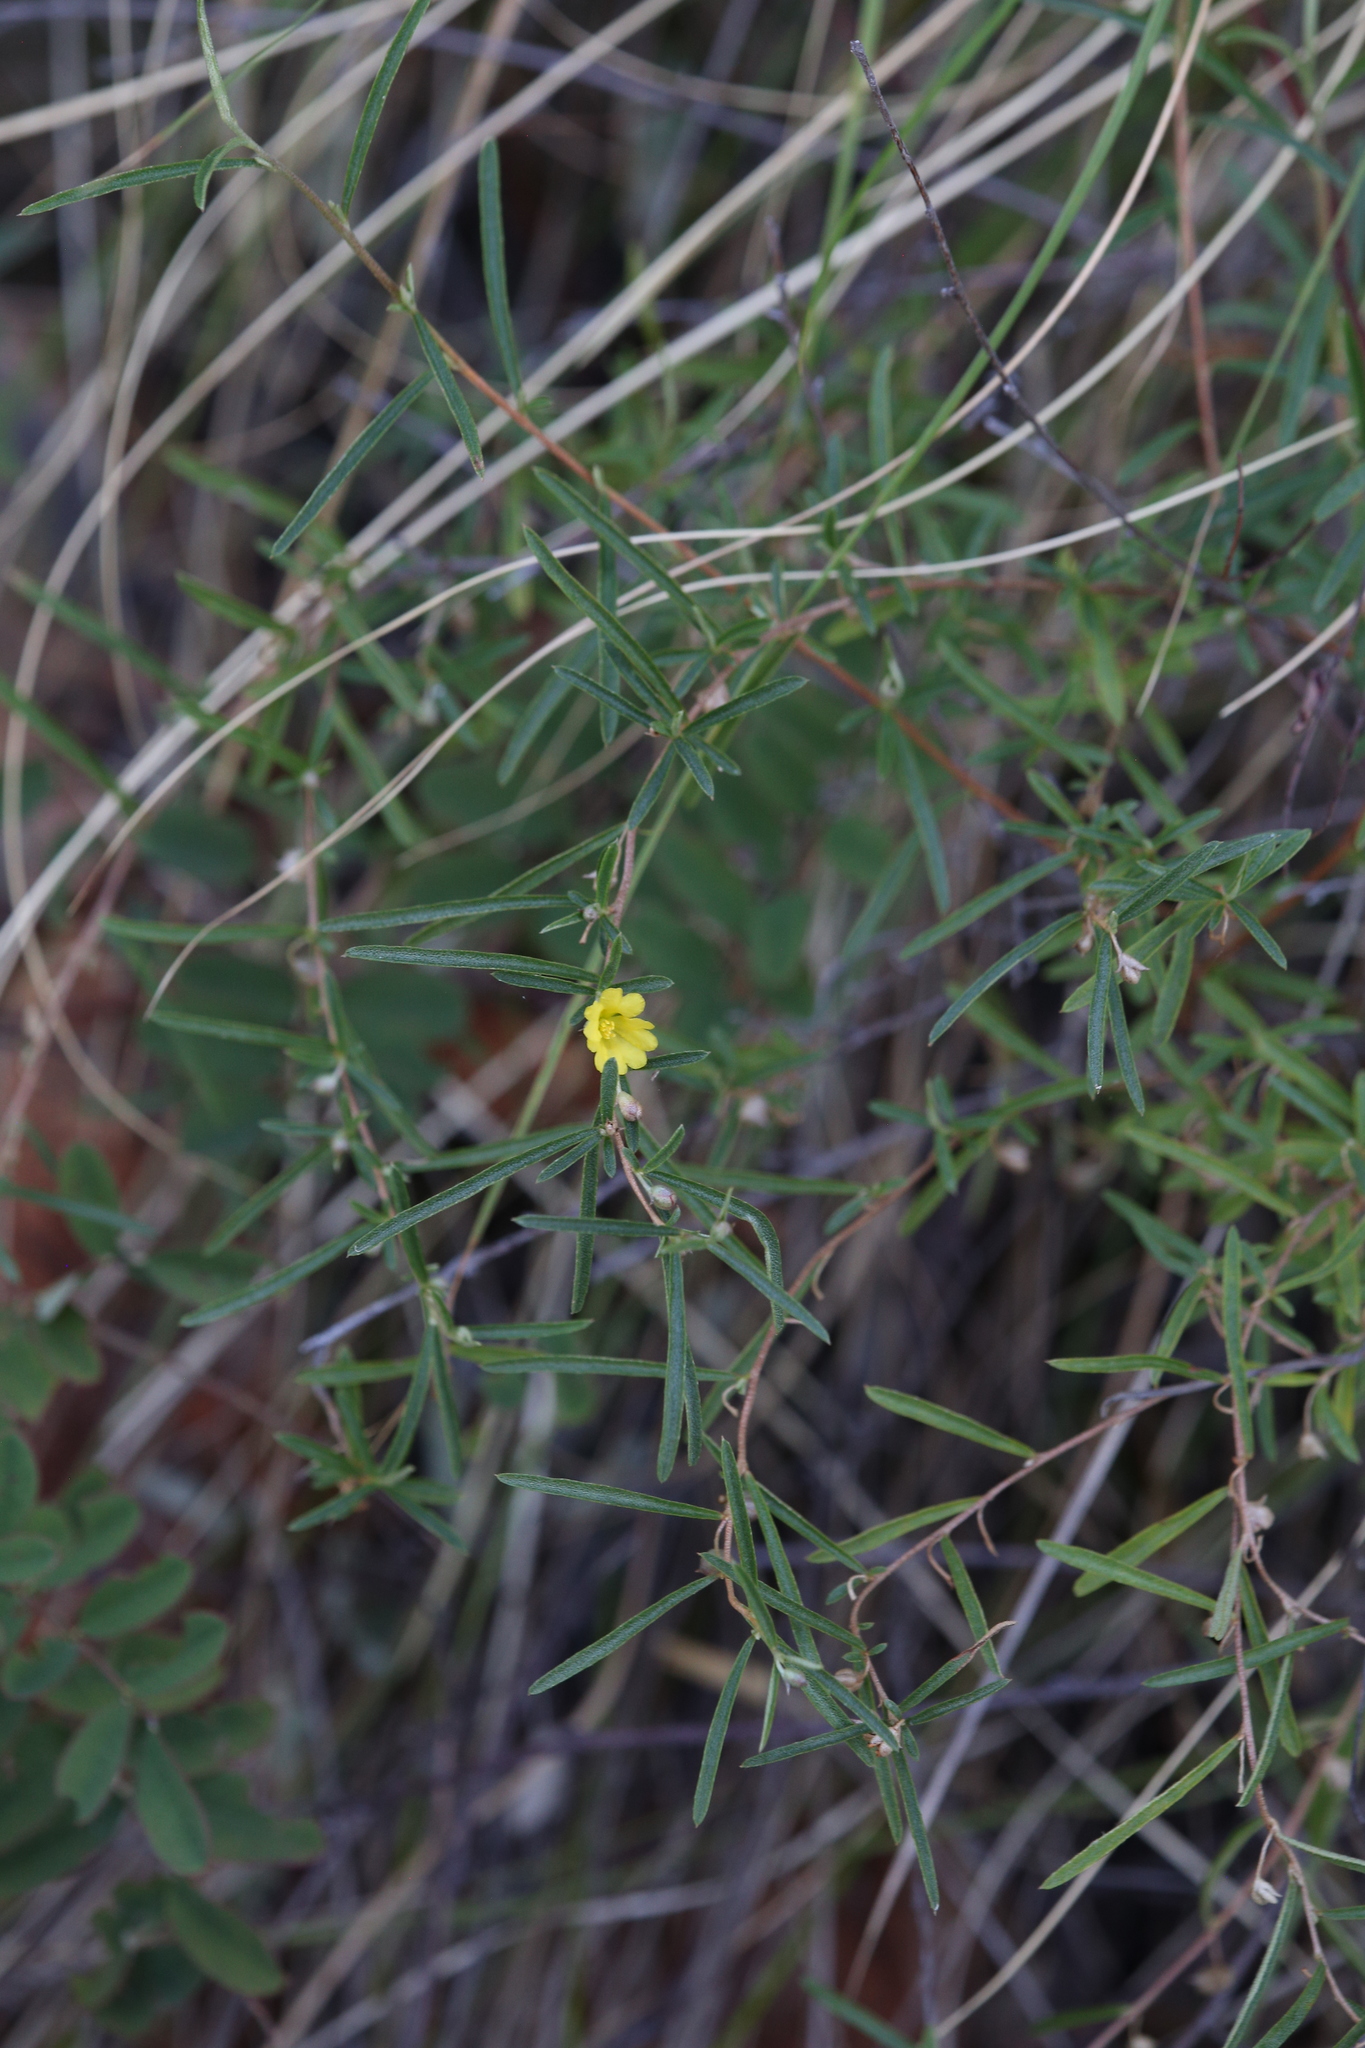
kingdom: Plantae
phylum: Tracheophyta
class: Magnoliopsida
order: Dilleniales
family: Dilleniaceae
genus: Hibbertia
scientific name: Hibbertia lepidota
